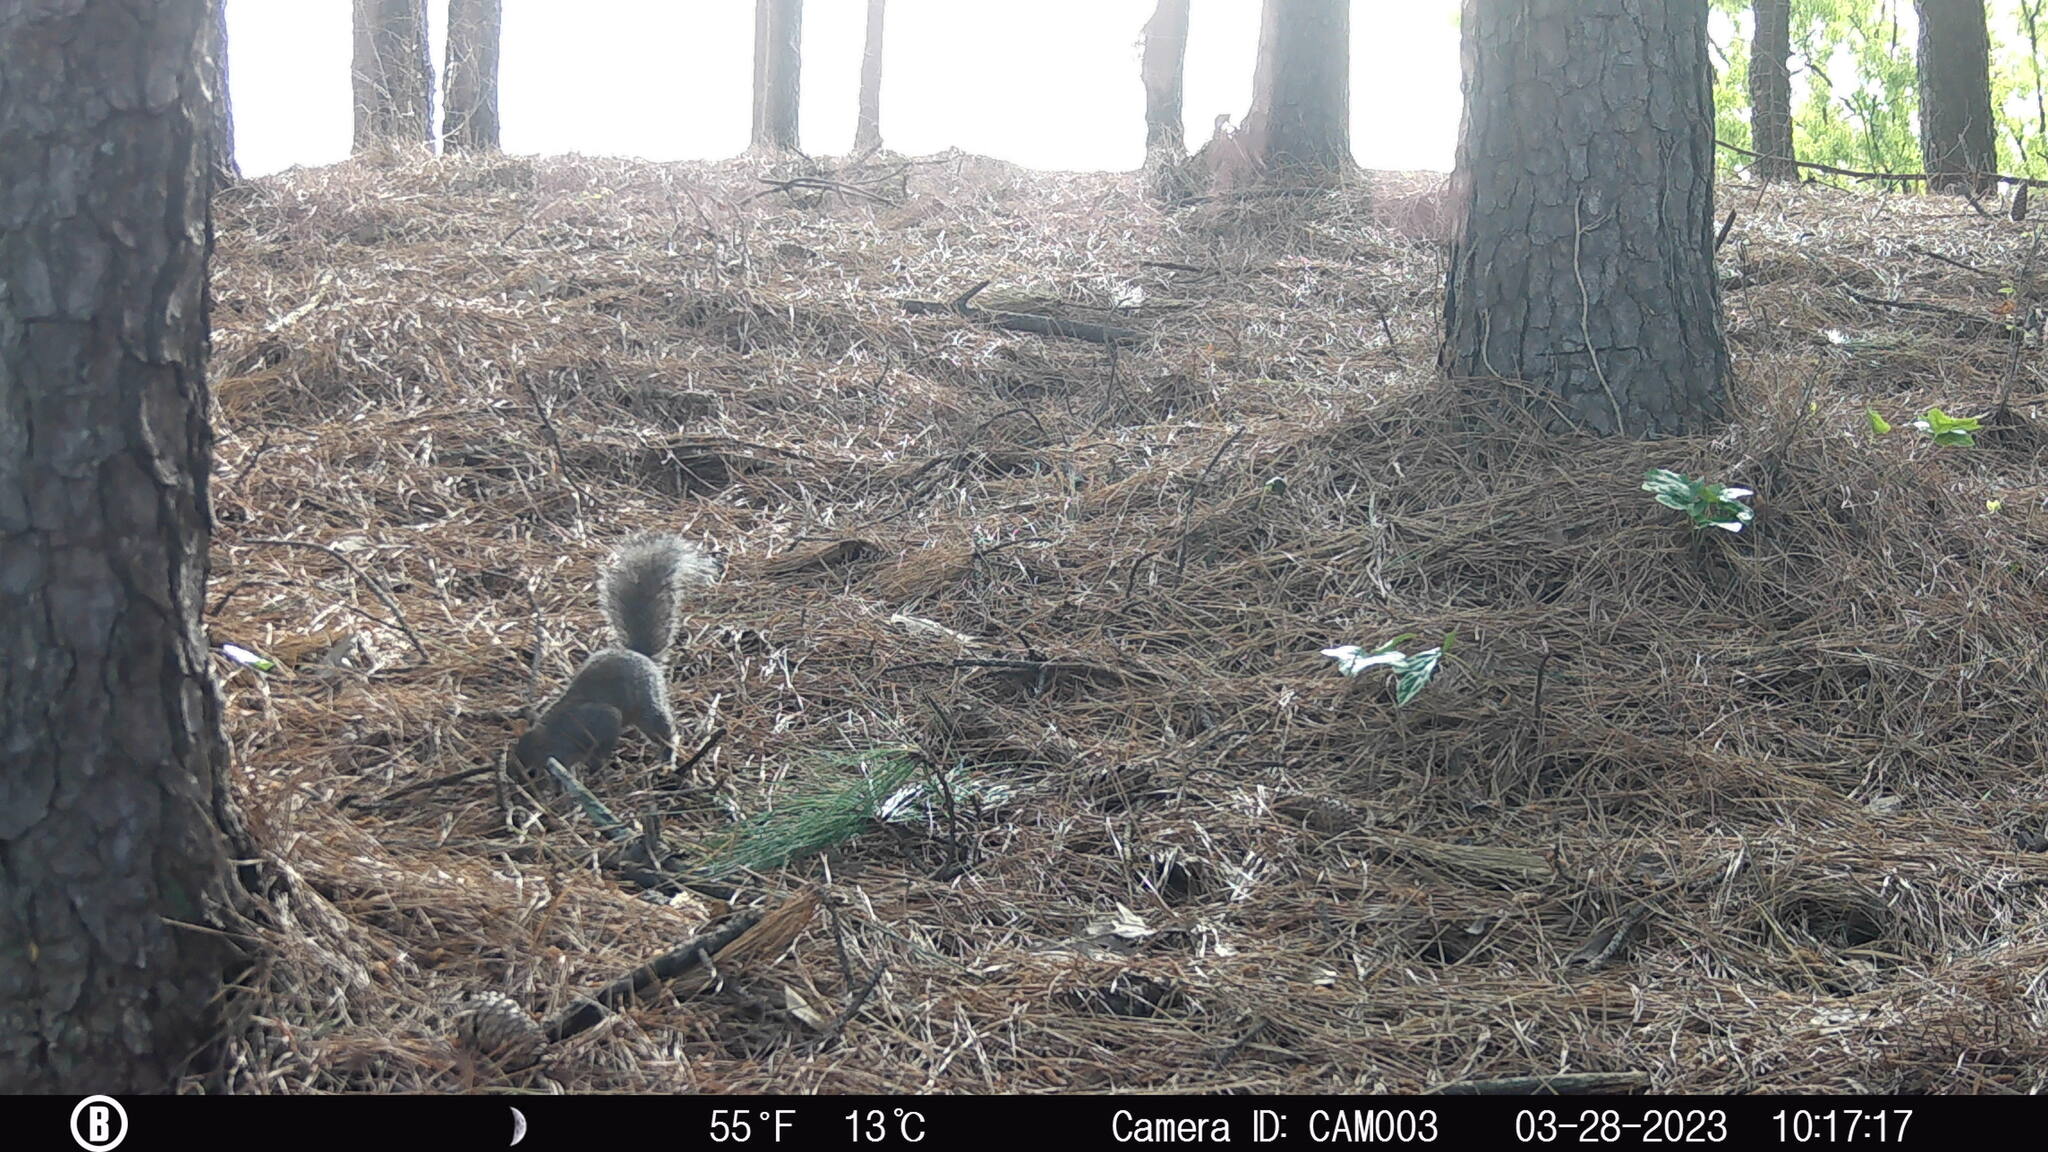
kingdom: Animalia
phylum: Chordata
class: Mammalia
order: Rodentia
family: Sciuridae
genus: Sciurus
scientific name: Sciurus carolinensis
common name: Eastern gray squirrel
